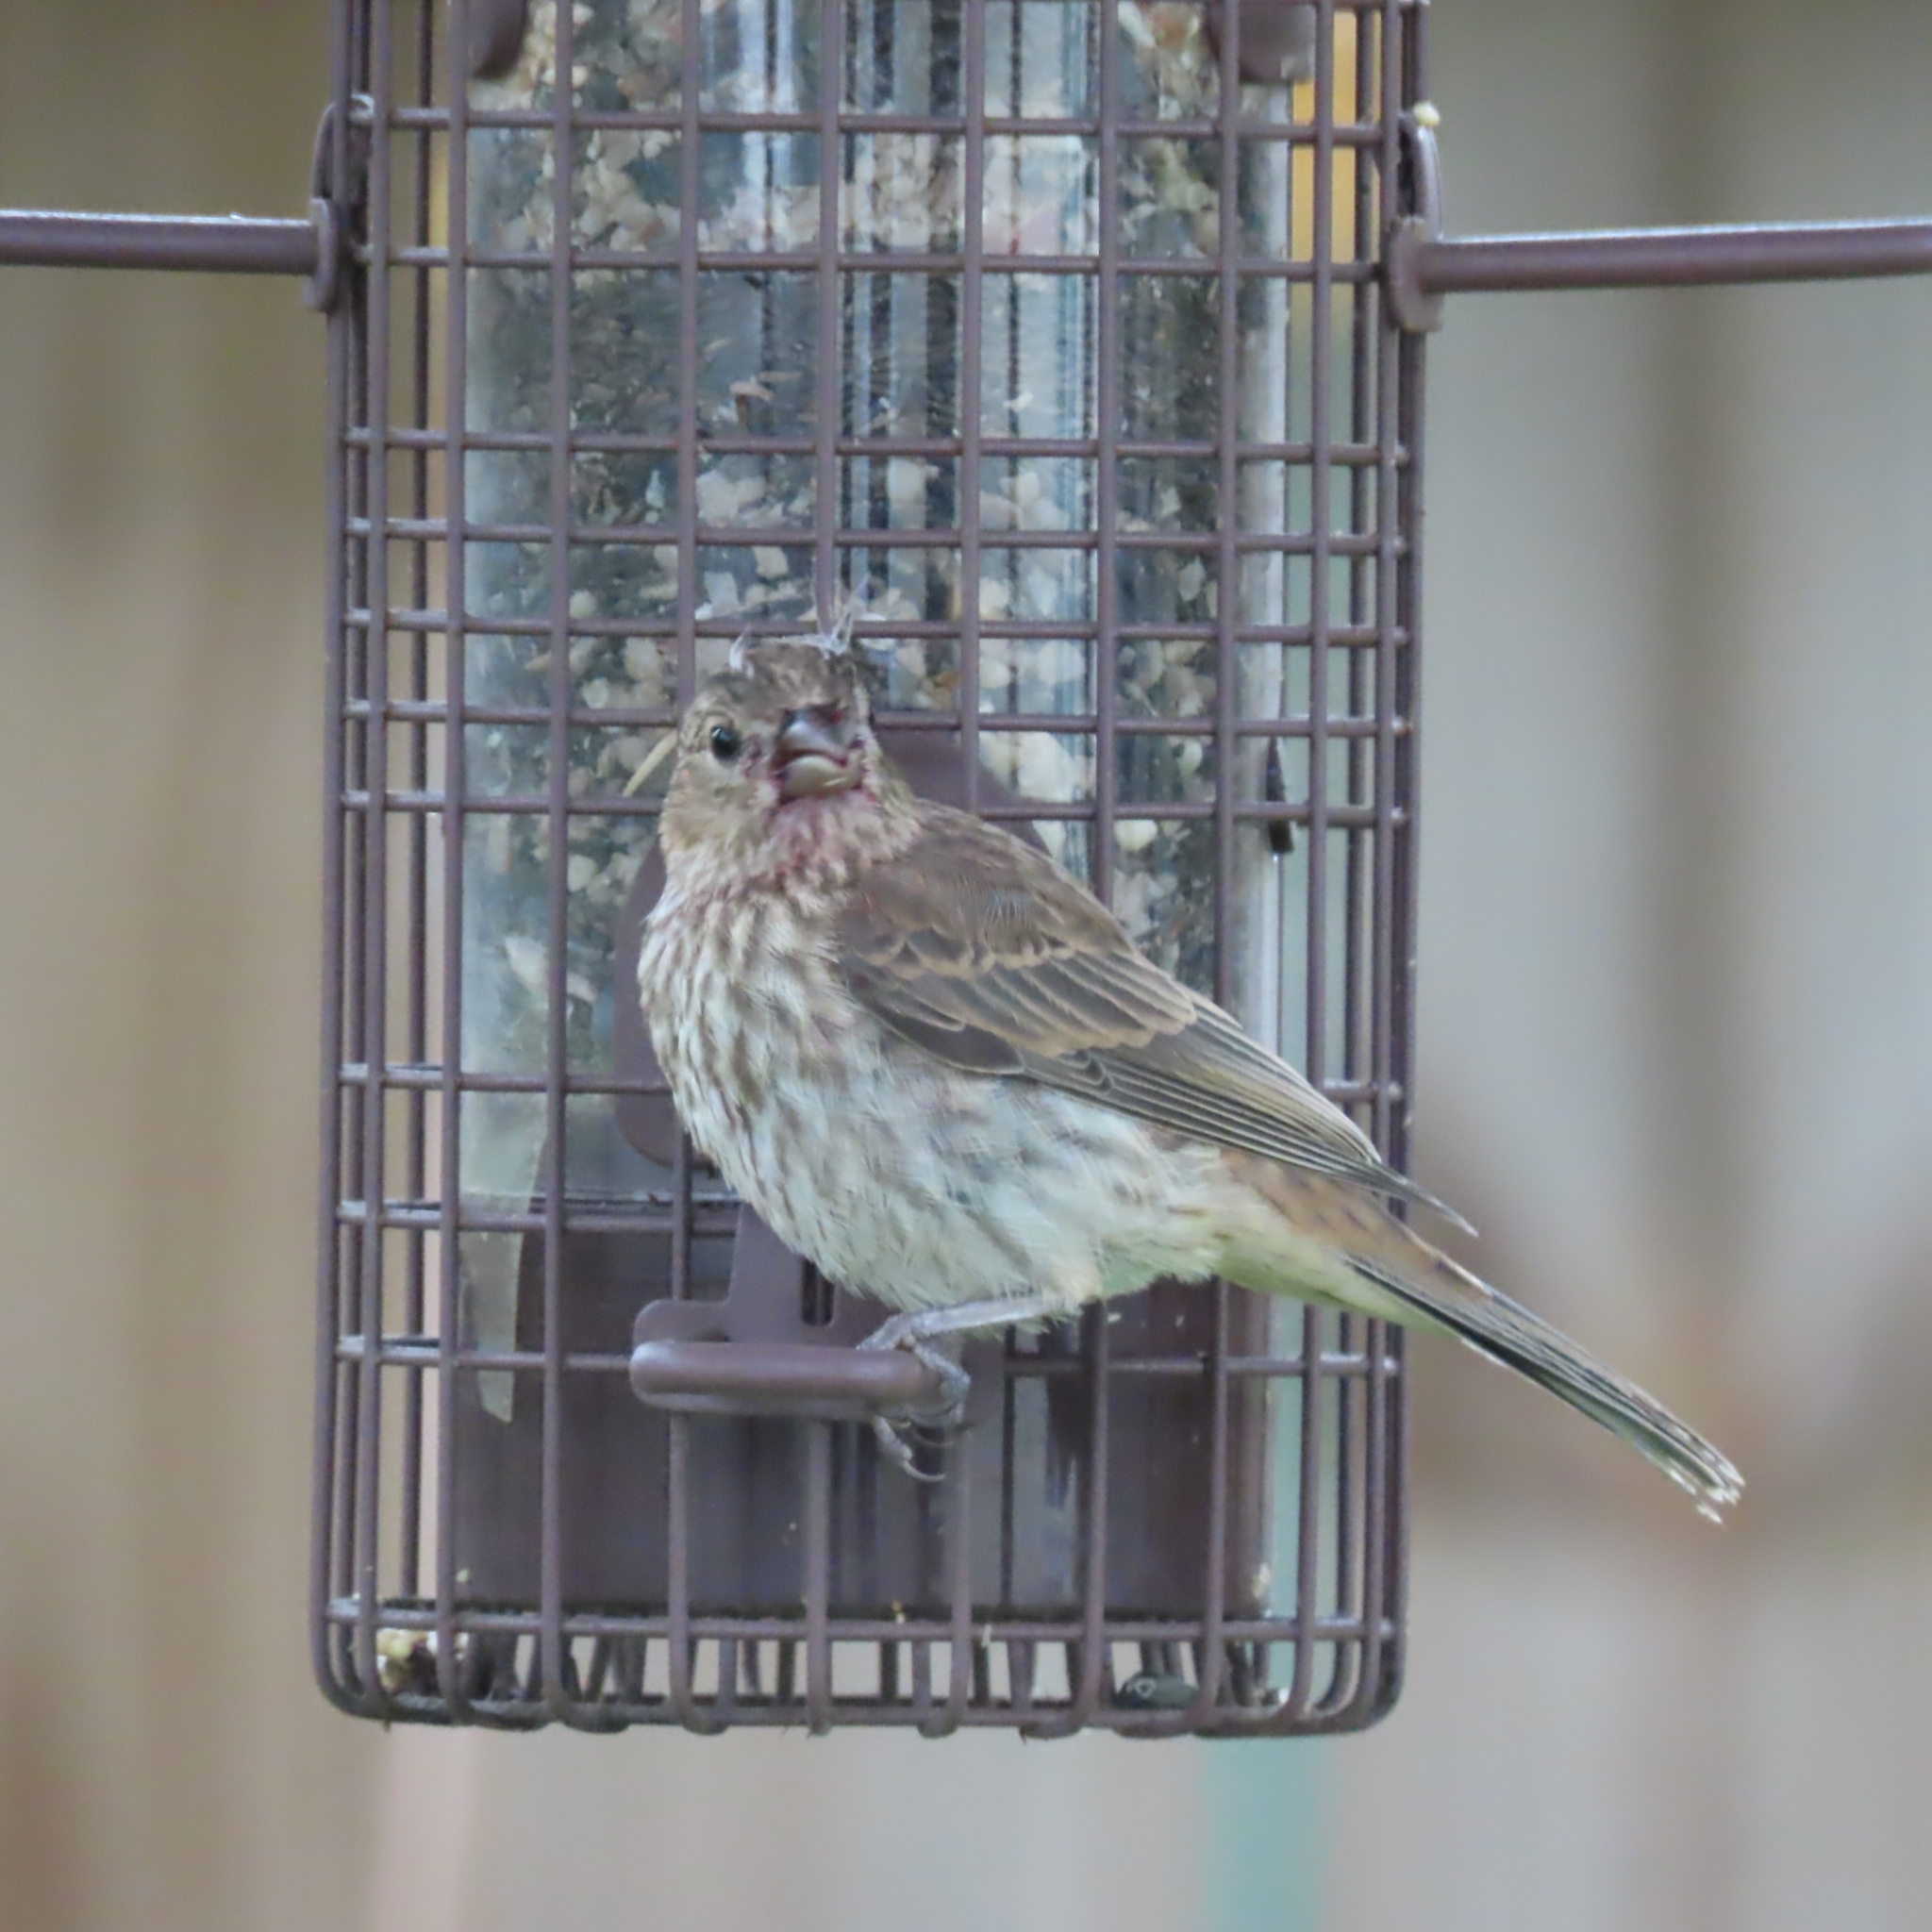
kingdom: Animalia
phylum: Chordata
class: Aves
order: Passeriformes
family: Fringillidae
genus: Haemorhous
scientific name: Haemorhous mexicanus
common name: House finch
